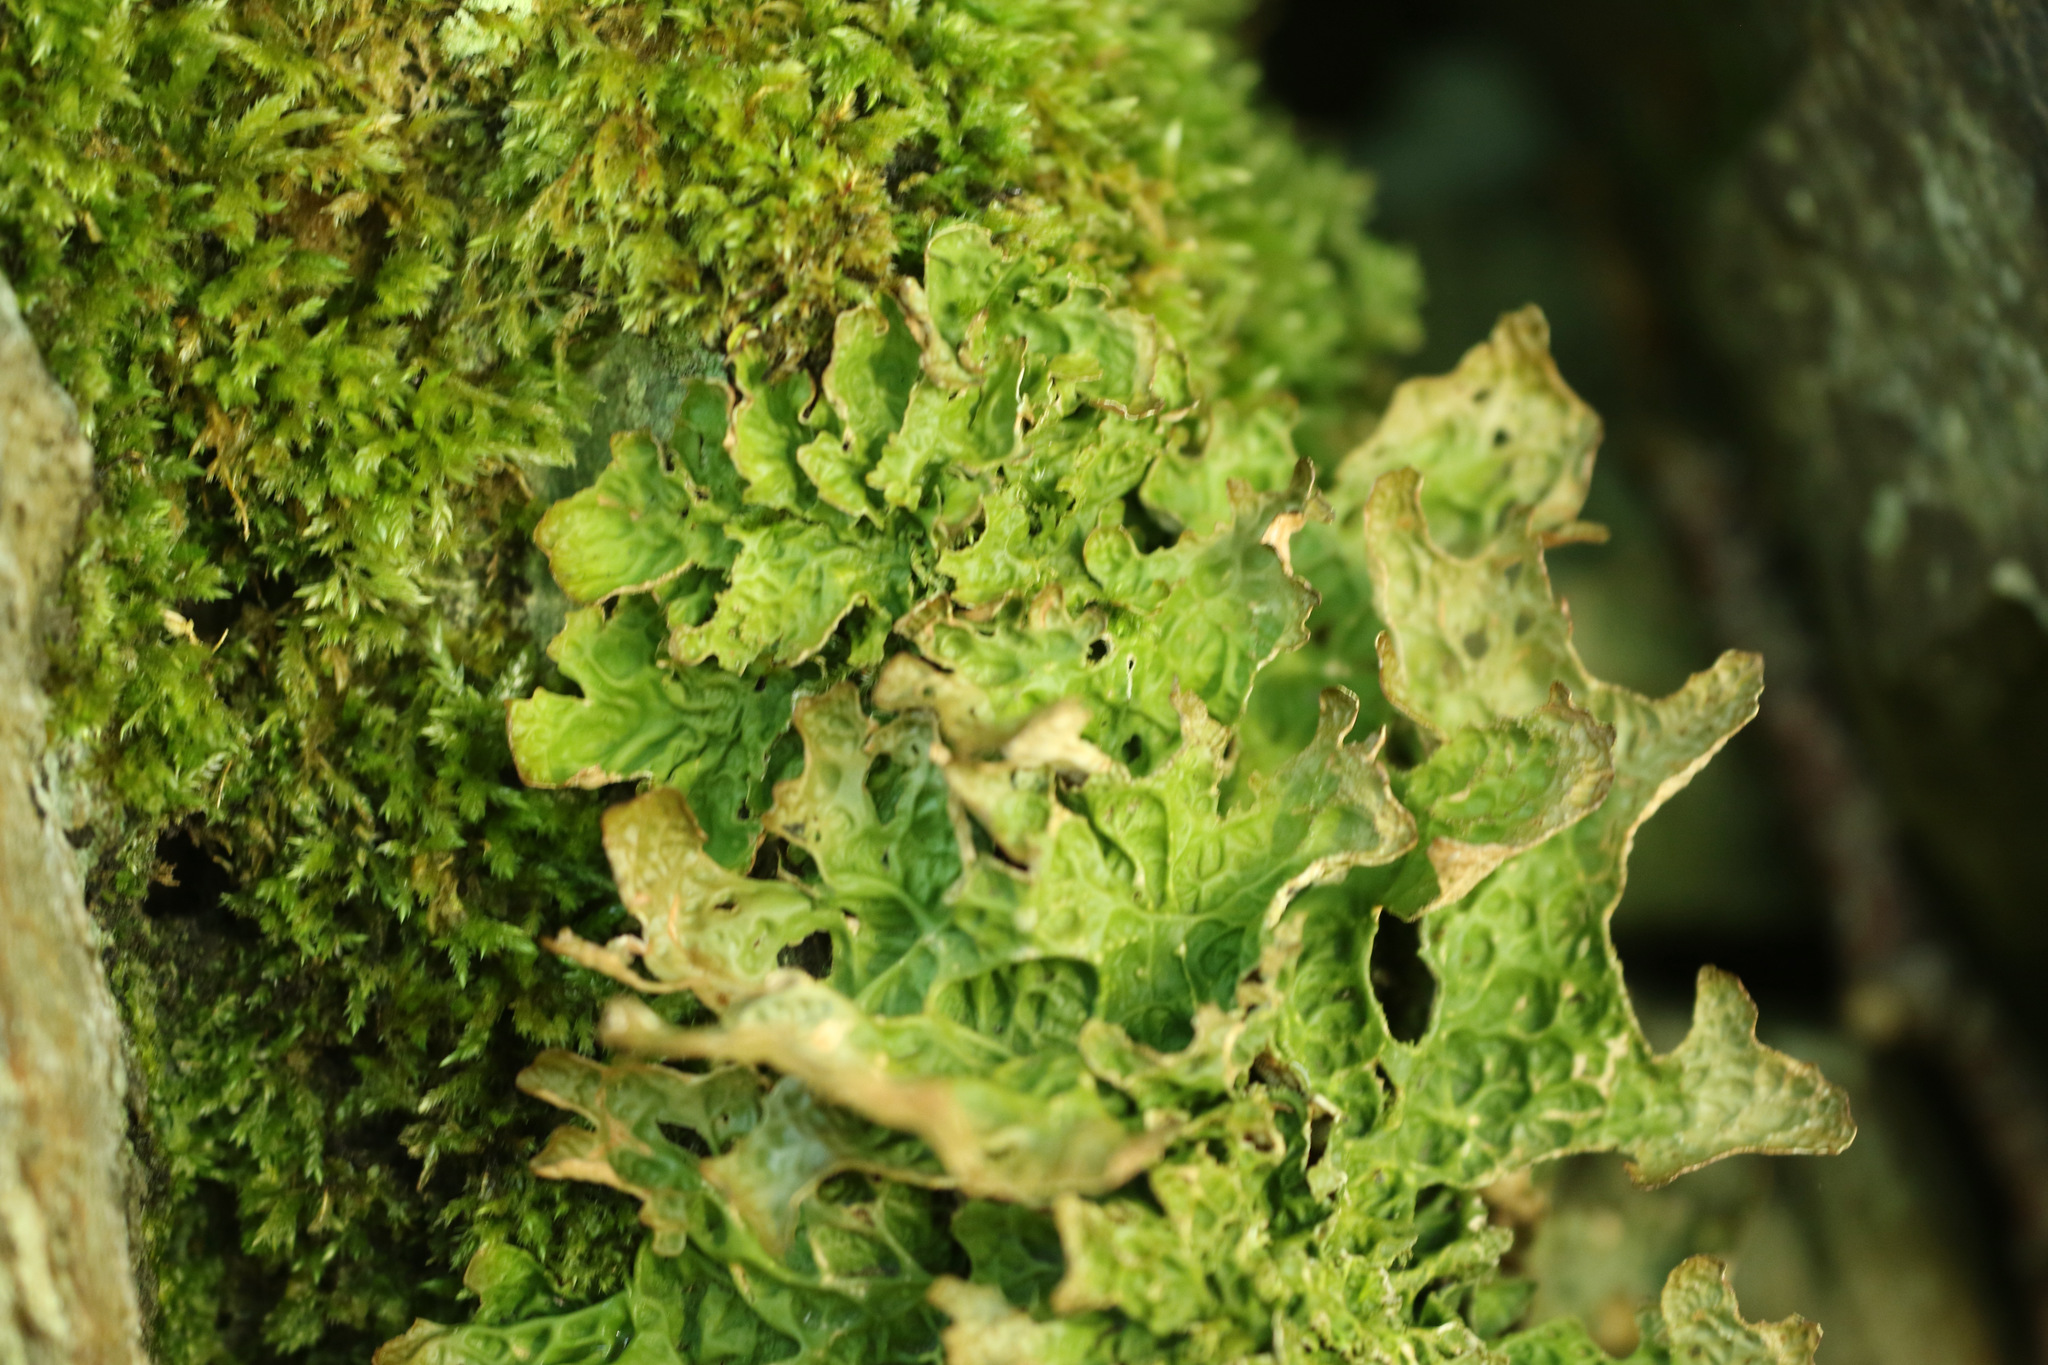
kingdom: Fungi
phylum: Ascomycota
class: Lecanoromycetes
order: Peltigerales
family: Lobariaceae
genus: Lobaria
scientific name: Lobaria pulmonaria
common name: Lungwort
